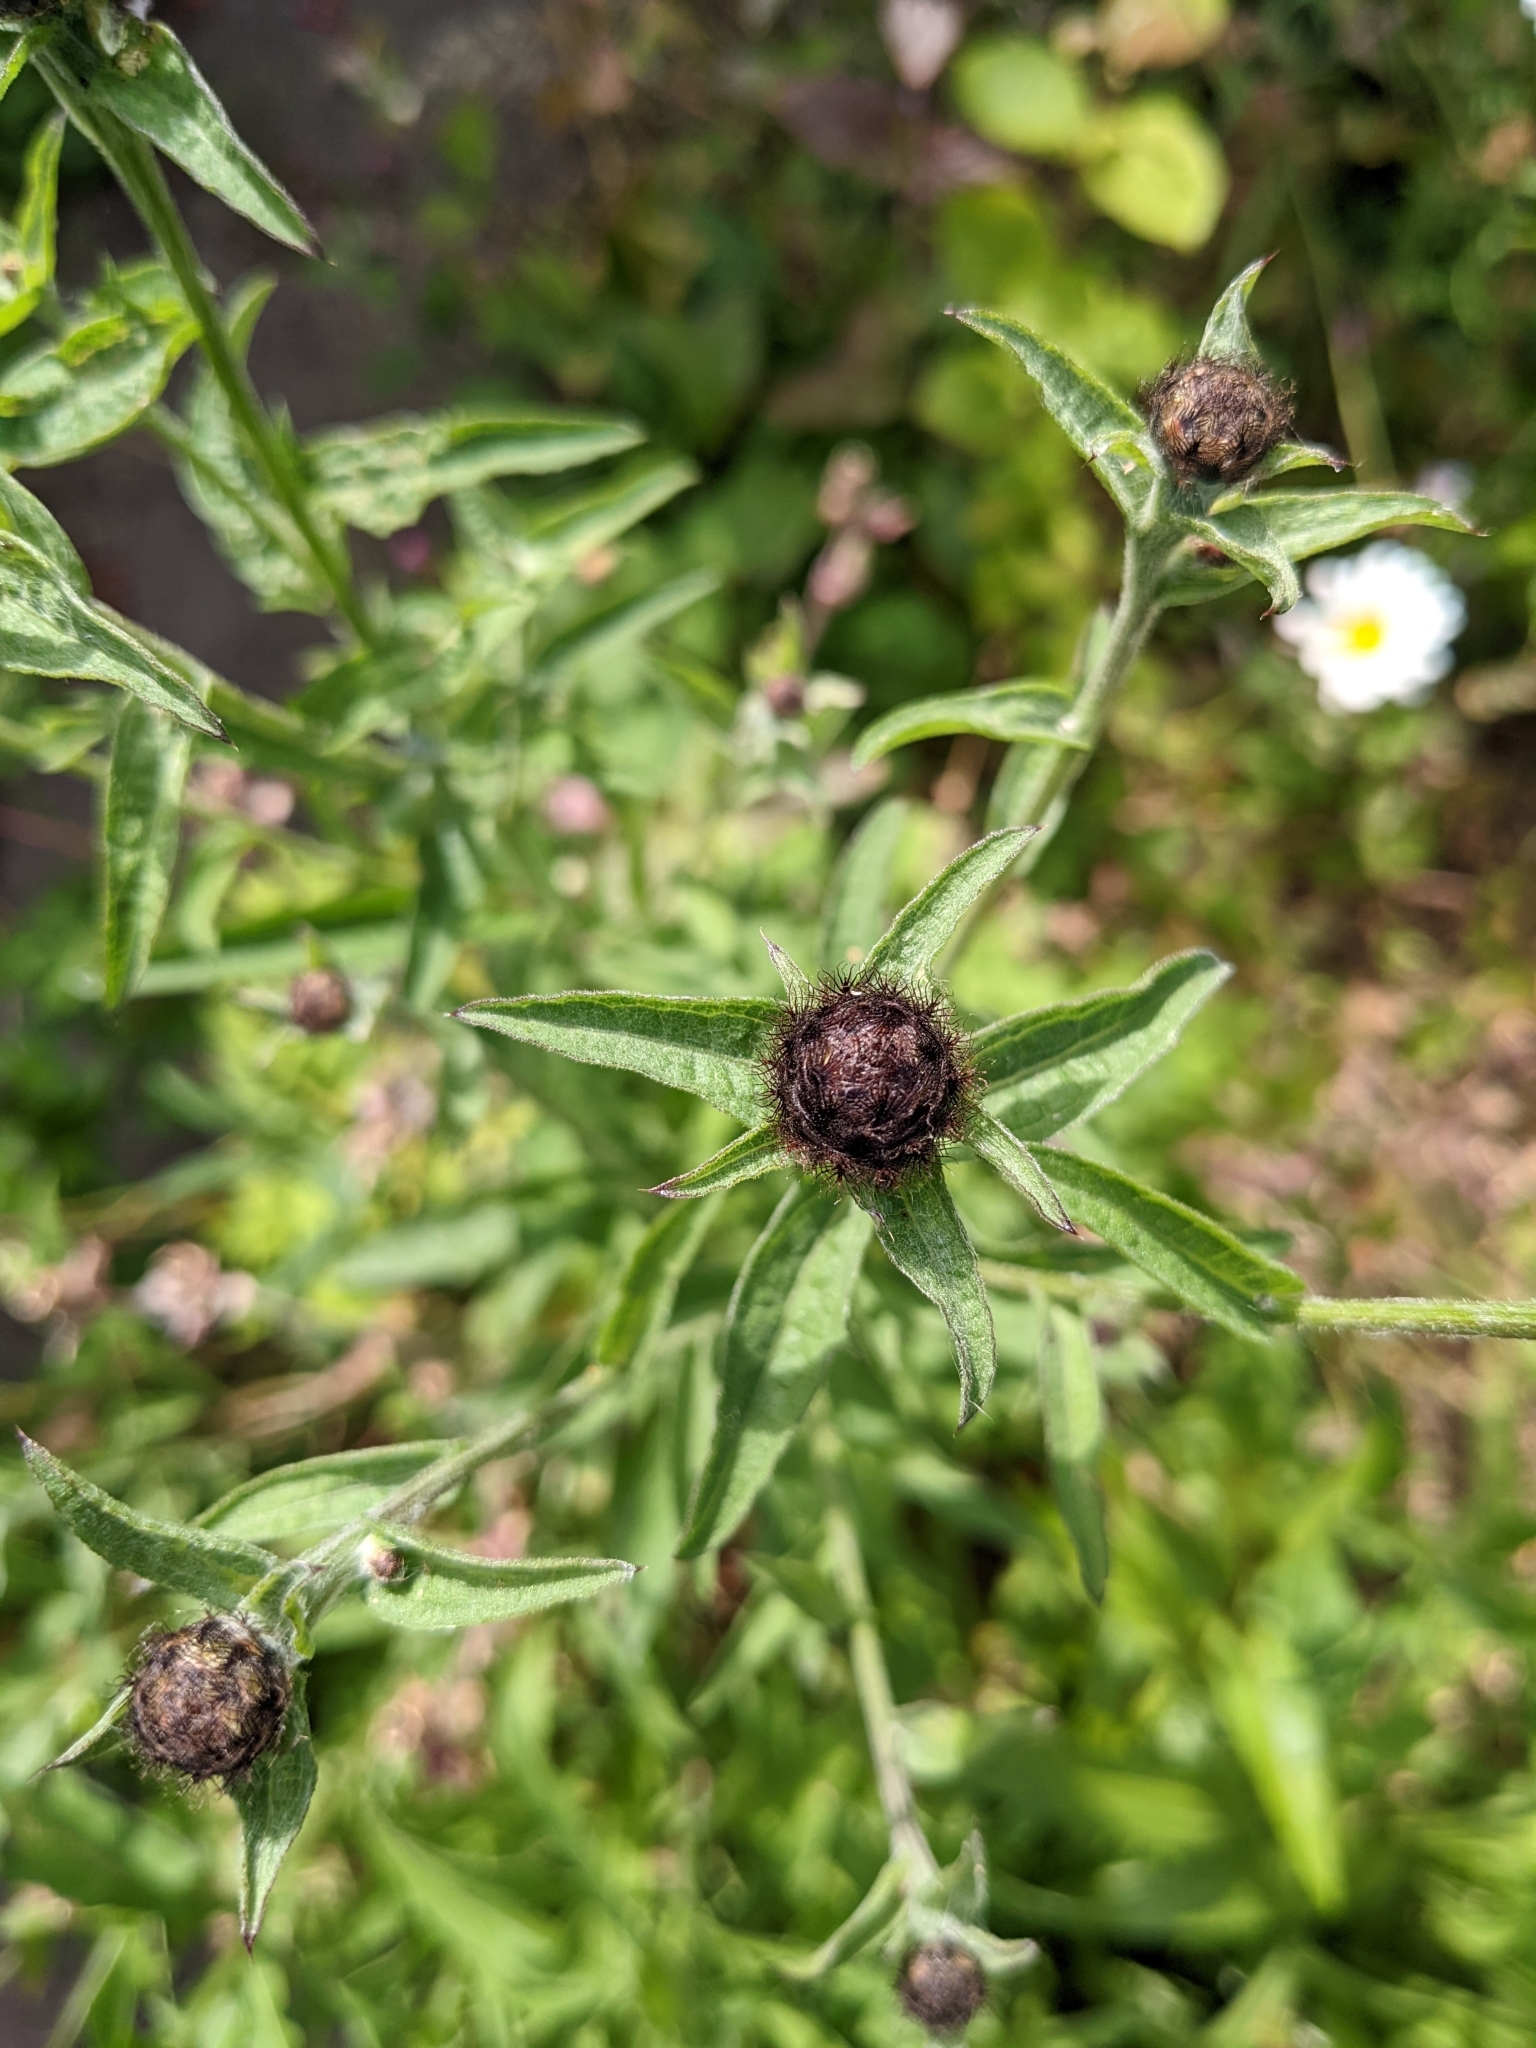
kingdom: Plantae
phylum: Tracheophyta
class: Magnoliopsida
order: Asterales
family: Asteraceae
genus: Centaurea
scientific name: Centaurea nigra
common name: Lesser knapweed
